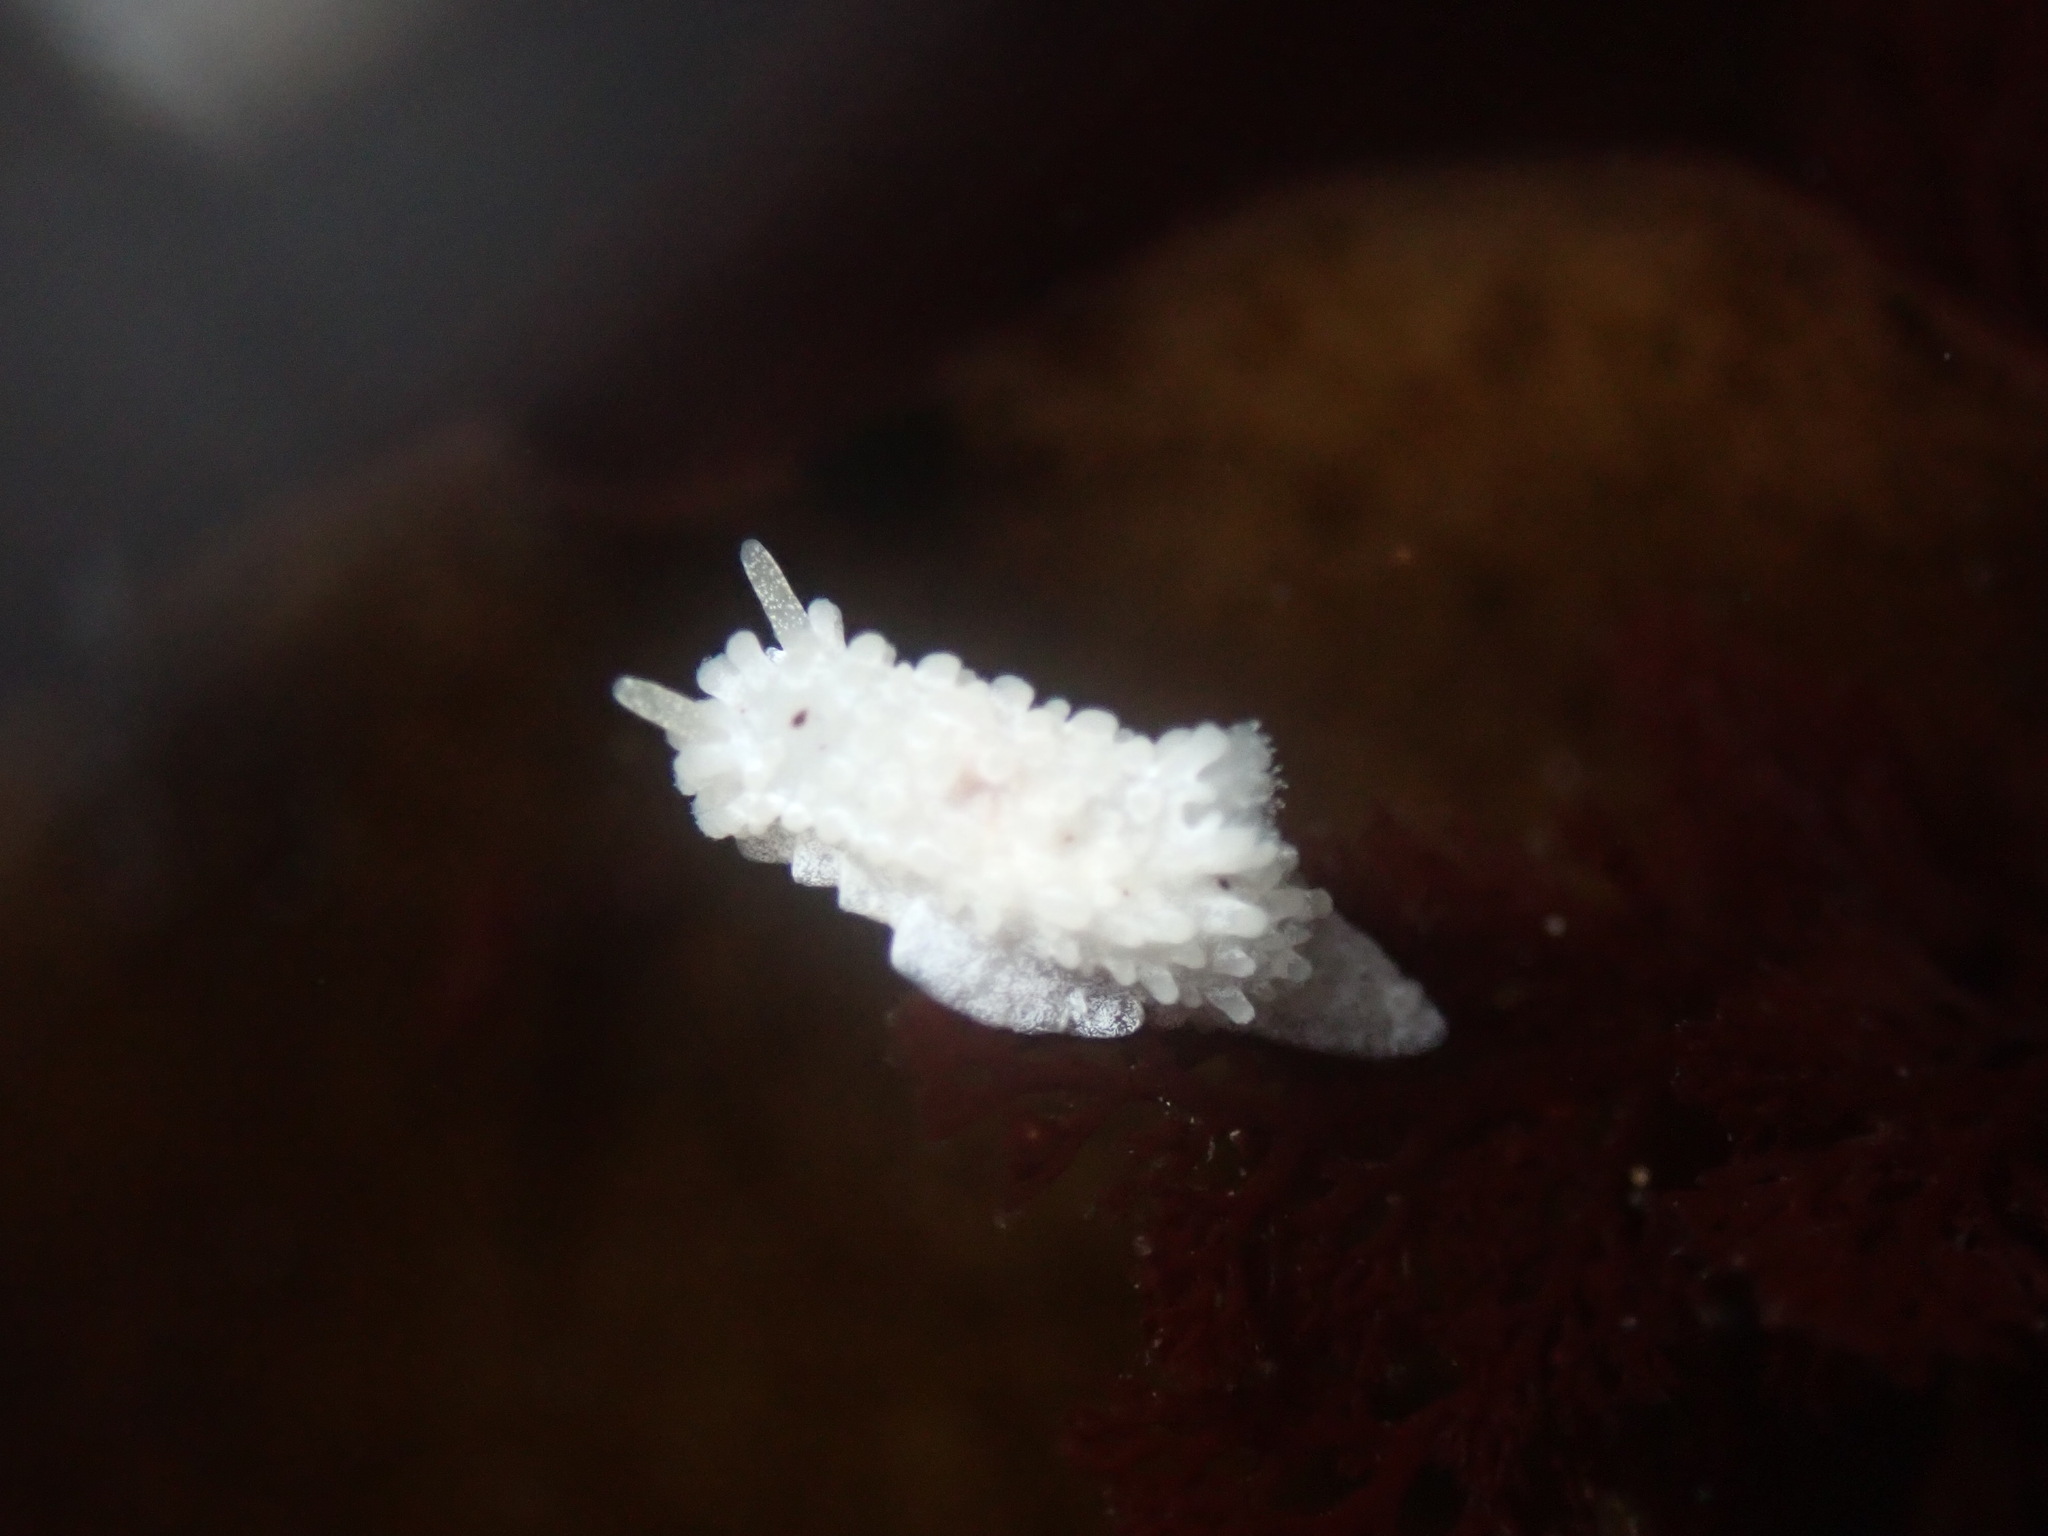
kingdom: Animalia
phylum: Mollusca
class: Gastropoda
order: Nudibranchia
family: Aegiridae
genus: Aegires
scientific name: Aegires albopunctatus
